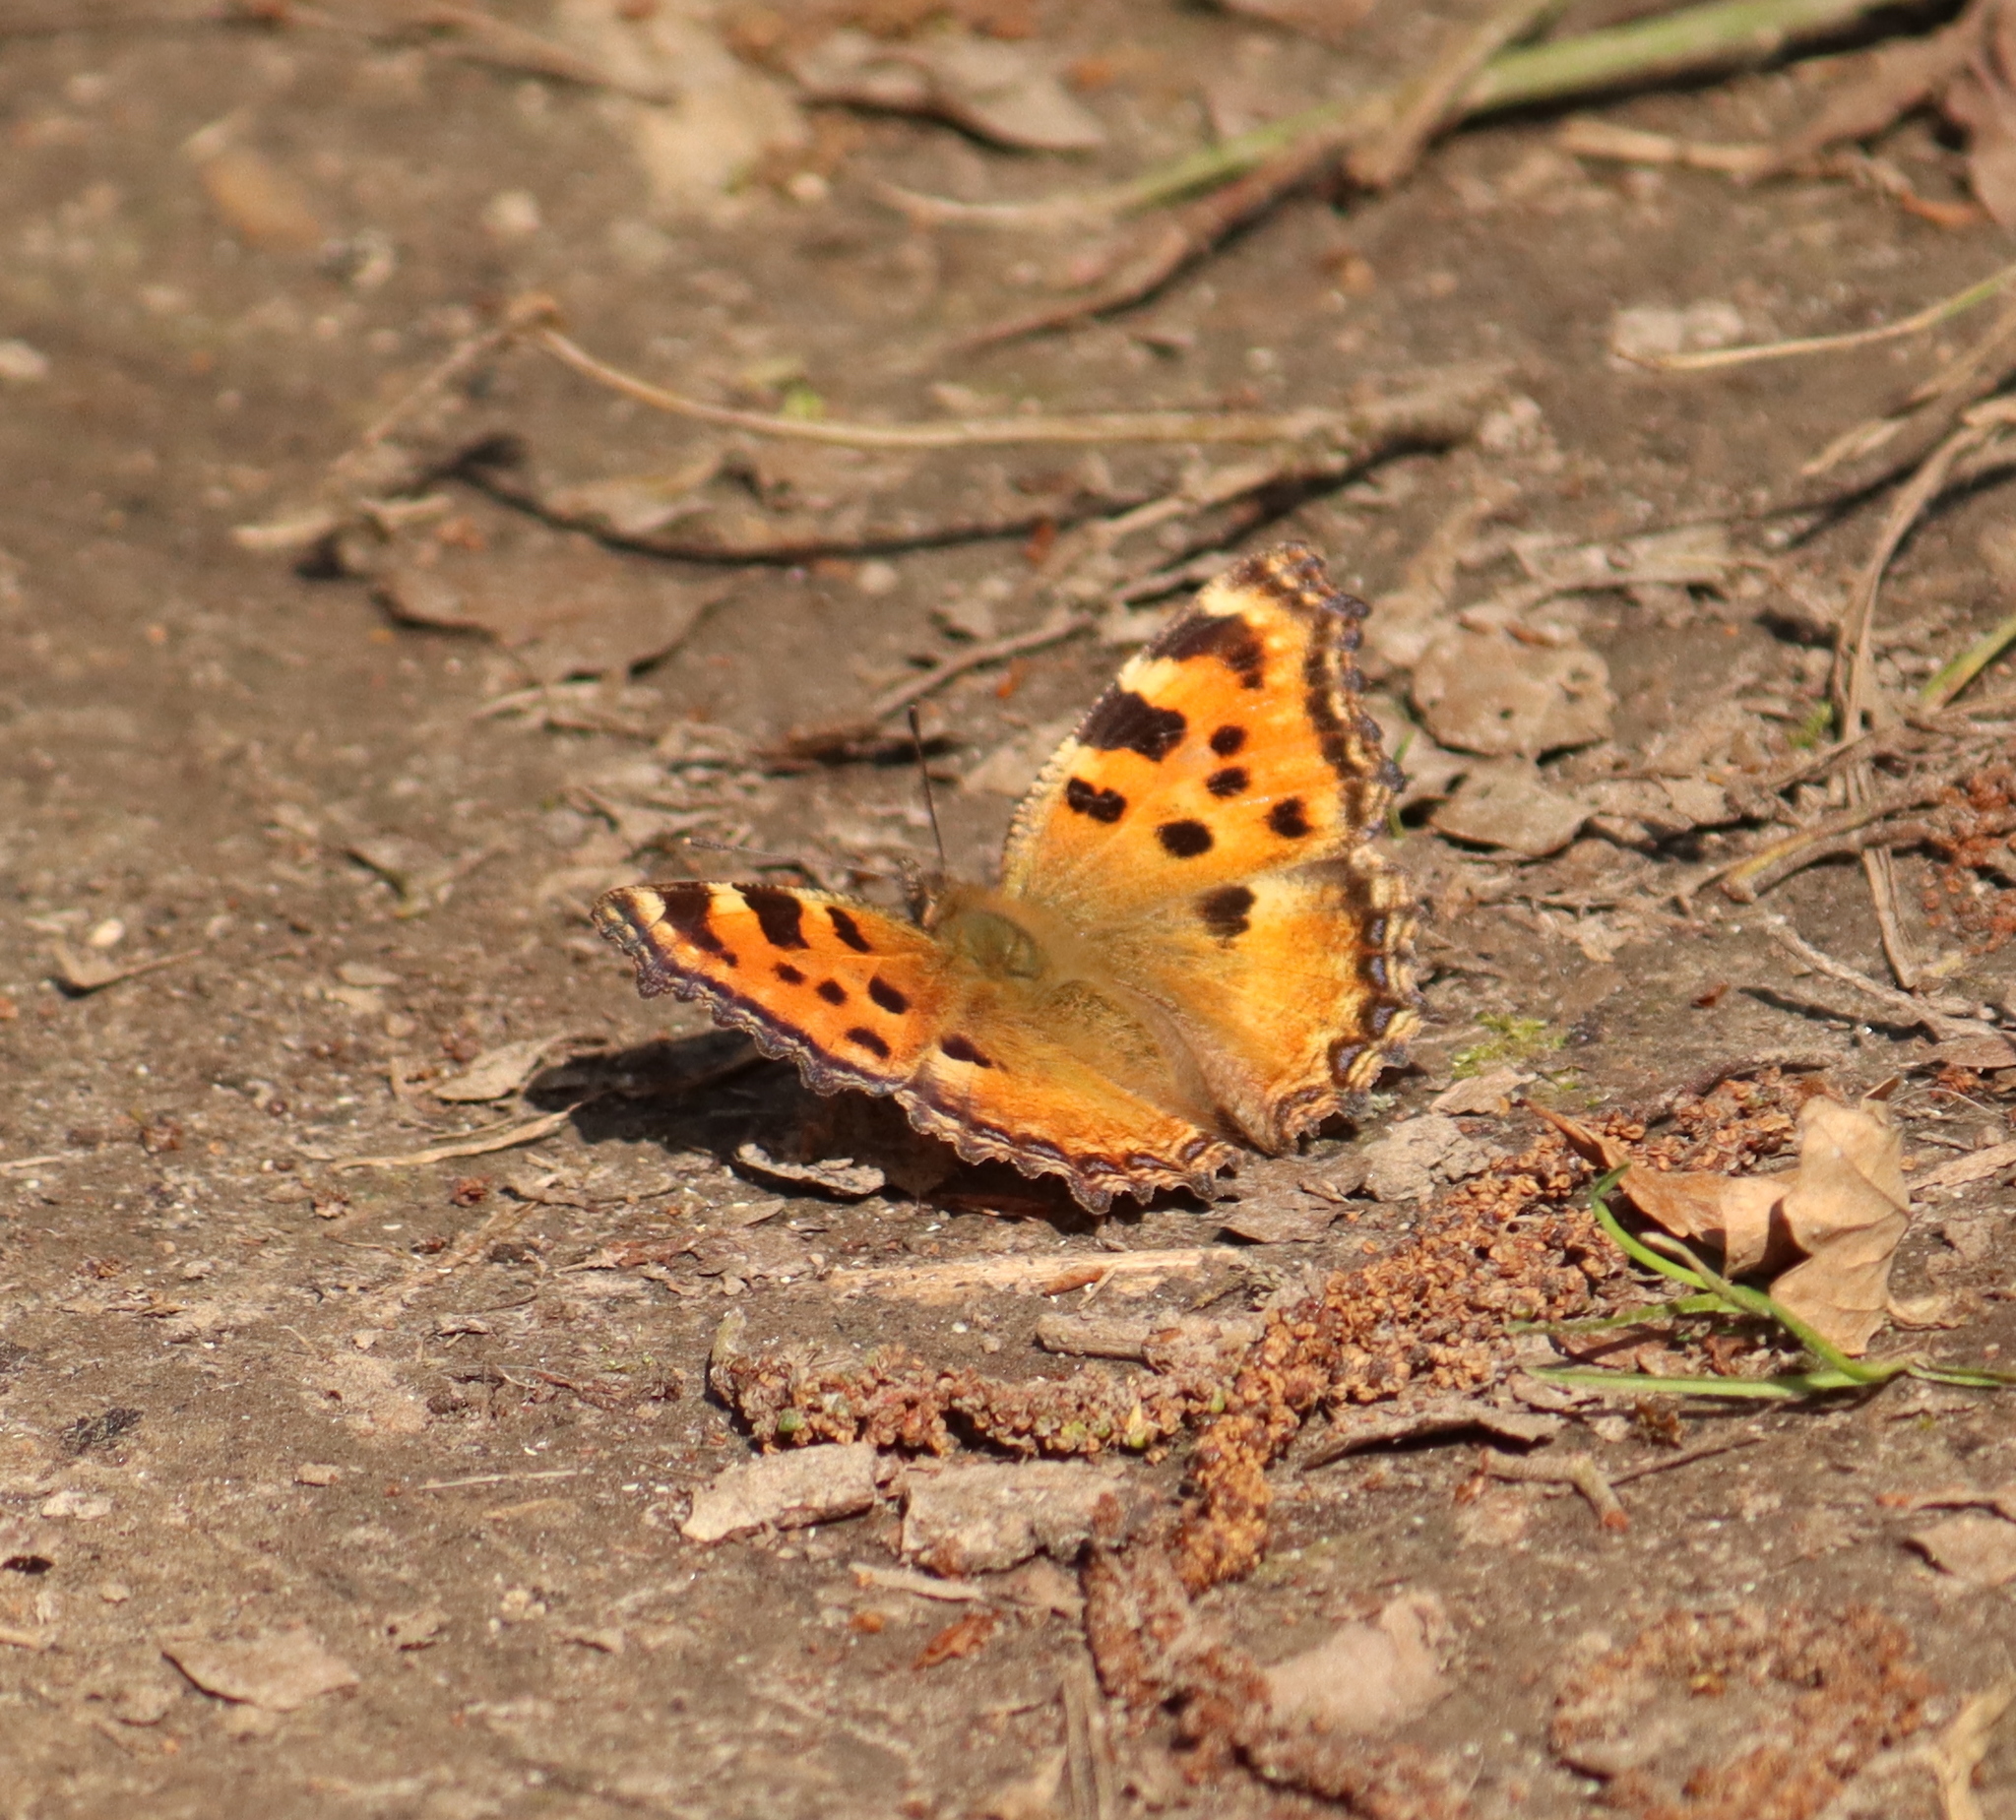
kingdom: Animalia
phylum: Arthropoda
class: Insecta
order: Lepidoptera
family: Nymphalidae
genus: Nymphalis
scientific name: Nymphalis polychloros
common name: Large tortoiseshell
